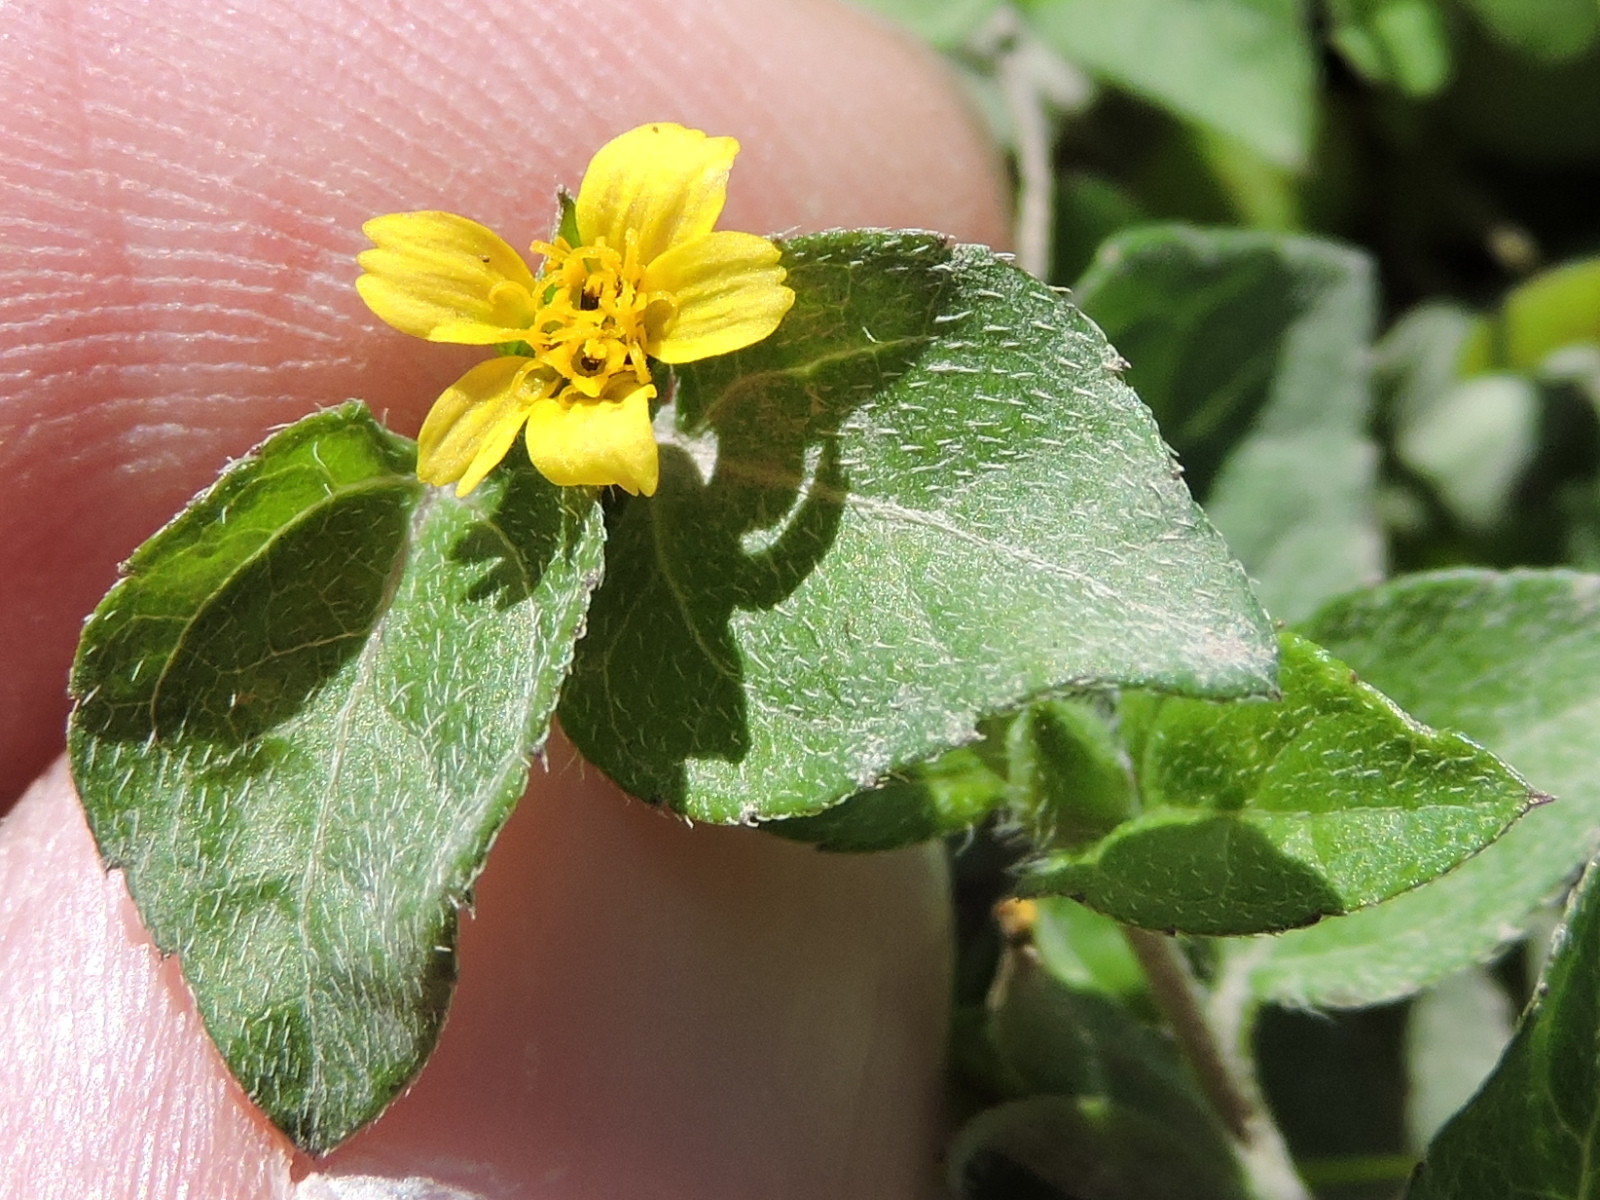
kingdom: Plantae
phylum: Tracheophyta
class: Magnoliopsida
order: Asterales
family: Asteraceae
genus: Calyptocarpus
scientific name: Calyptocarpus vialis
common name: Straggler daisy
